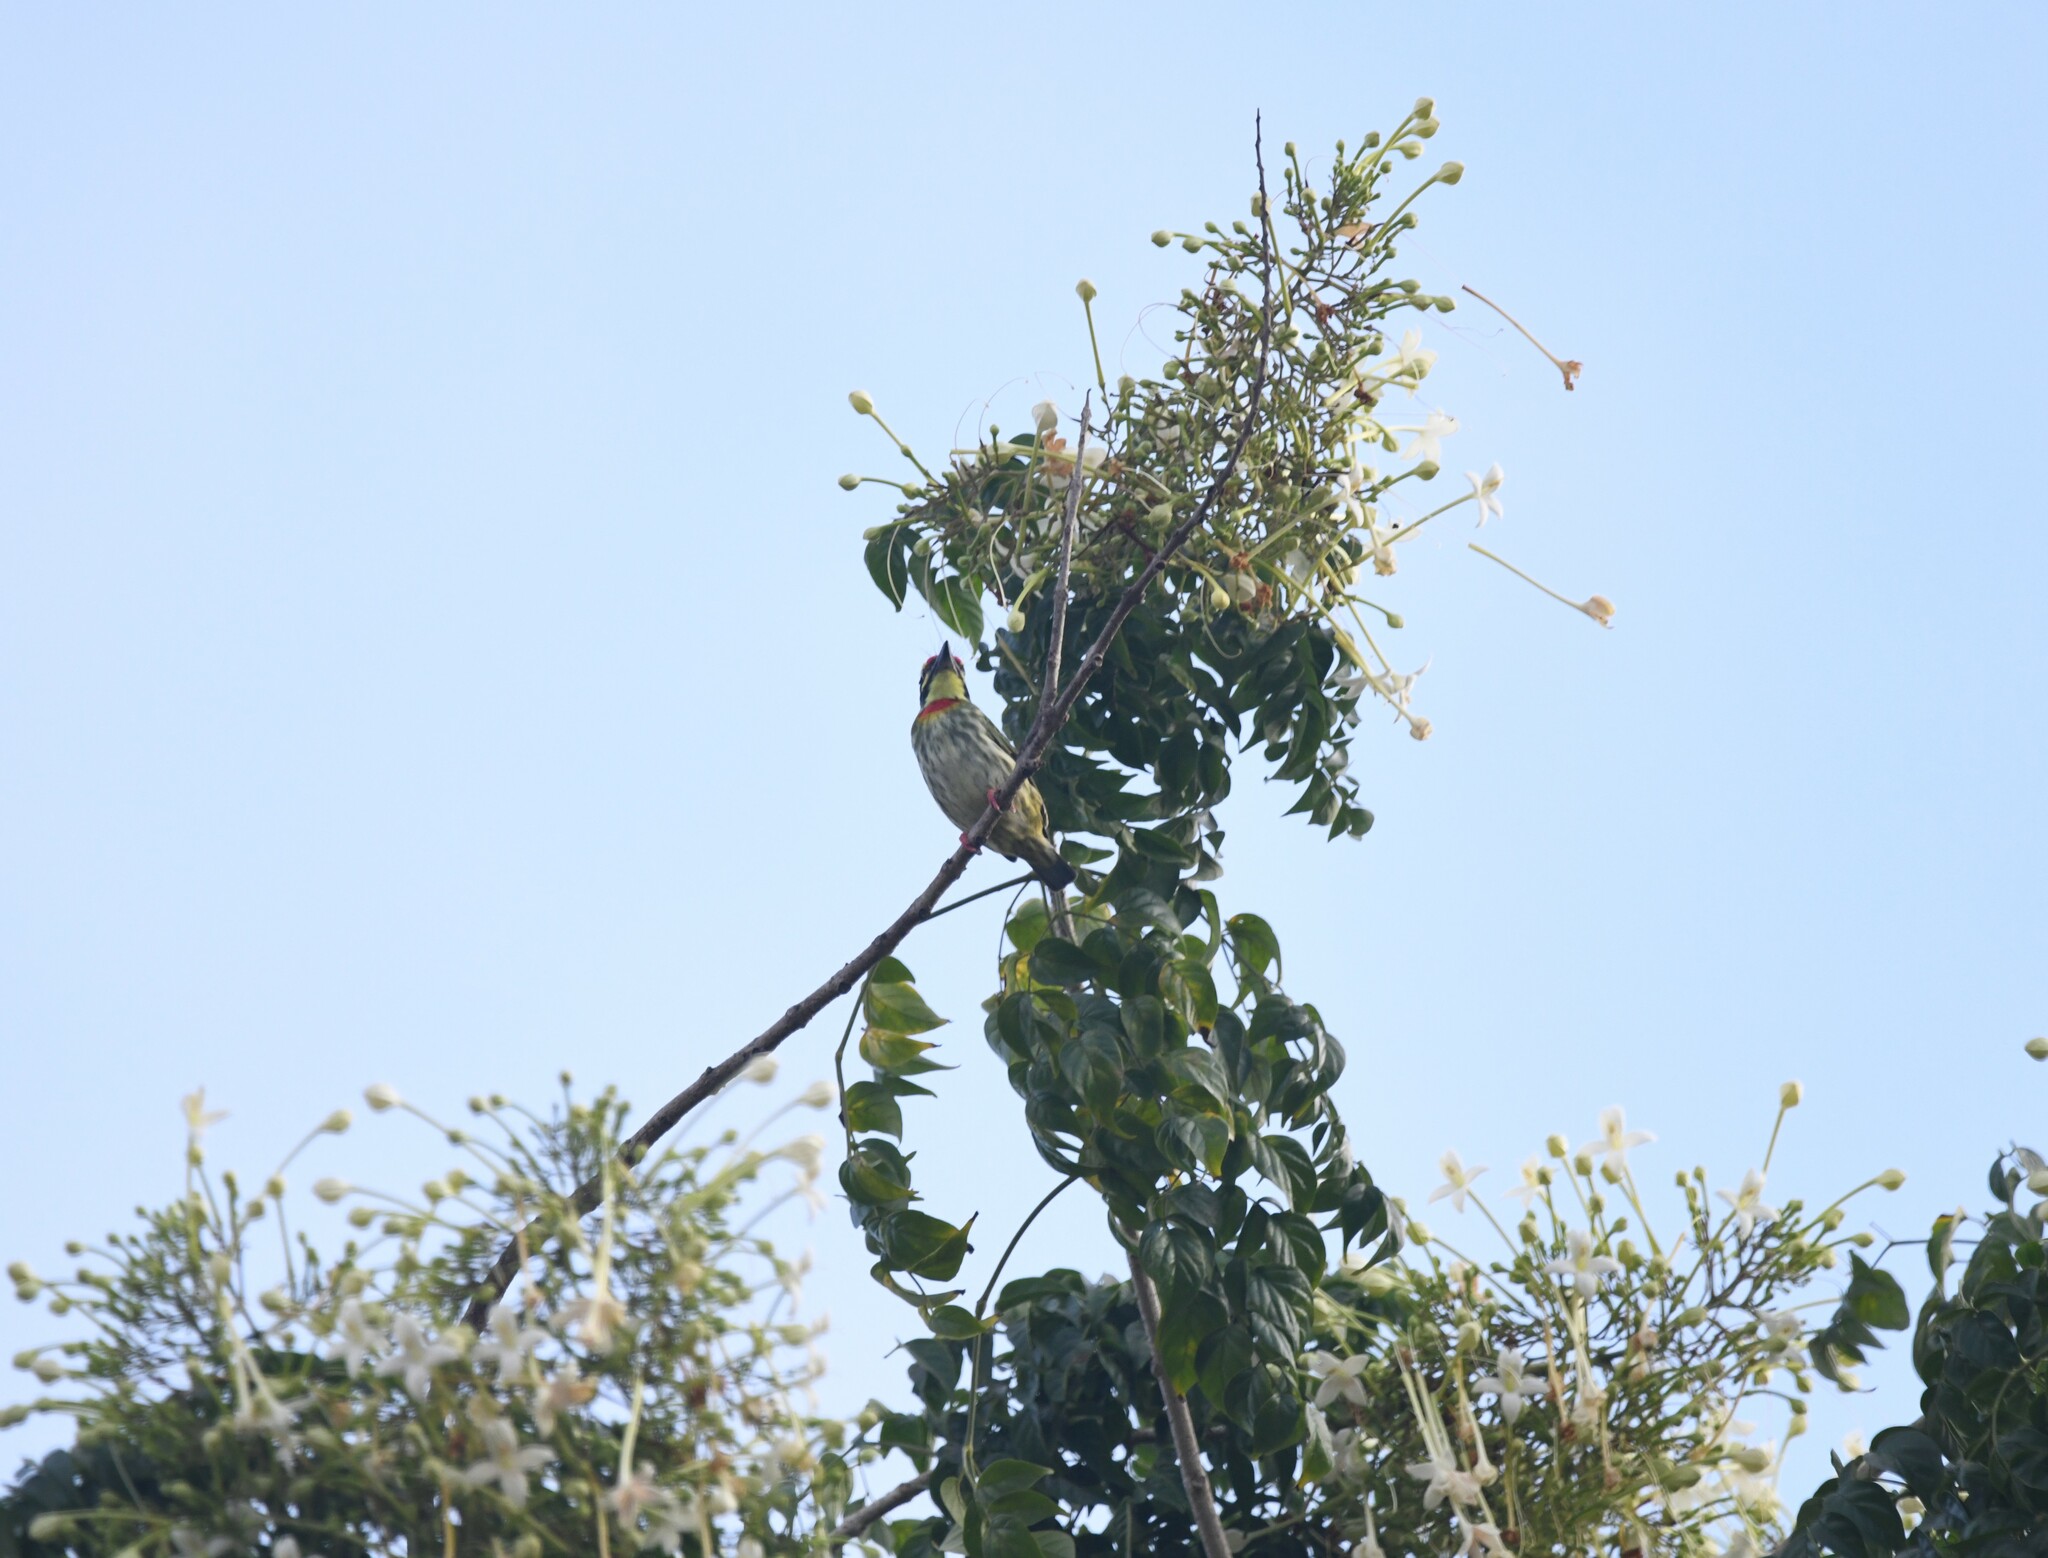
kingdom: Animalia
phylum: Chordata
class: Aves
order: Piciformes
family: Megalaimidae
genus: Psilopogon
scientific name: Psilopogon haemacephalus
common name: Coppersmith barbet
